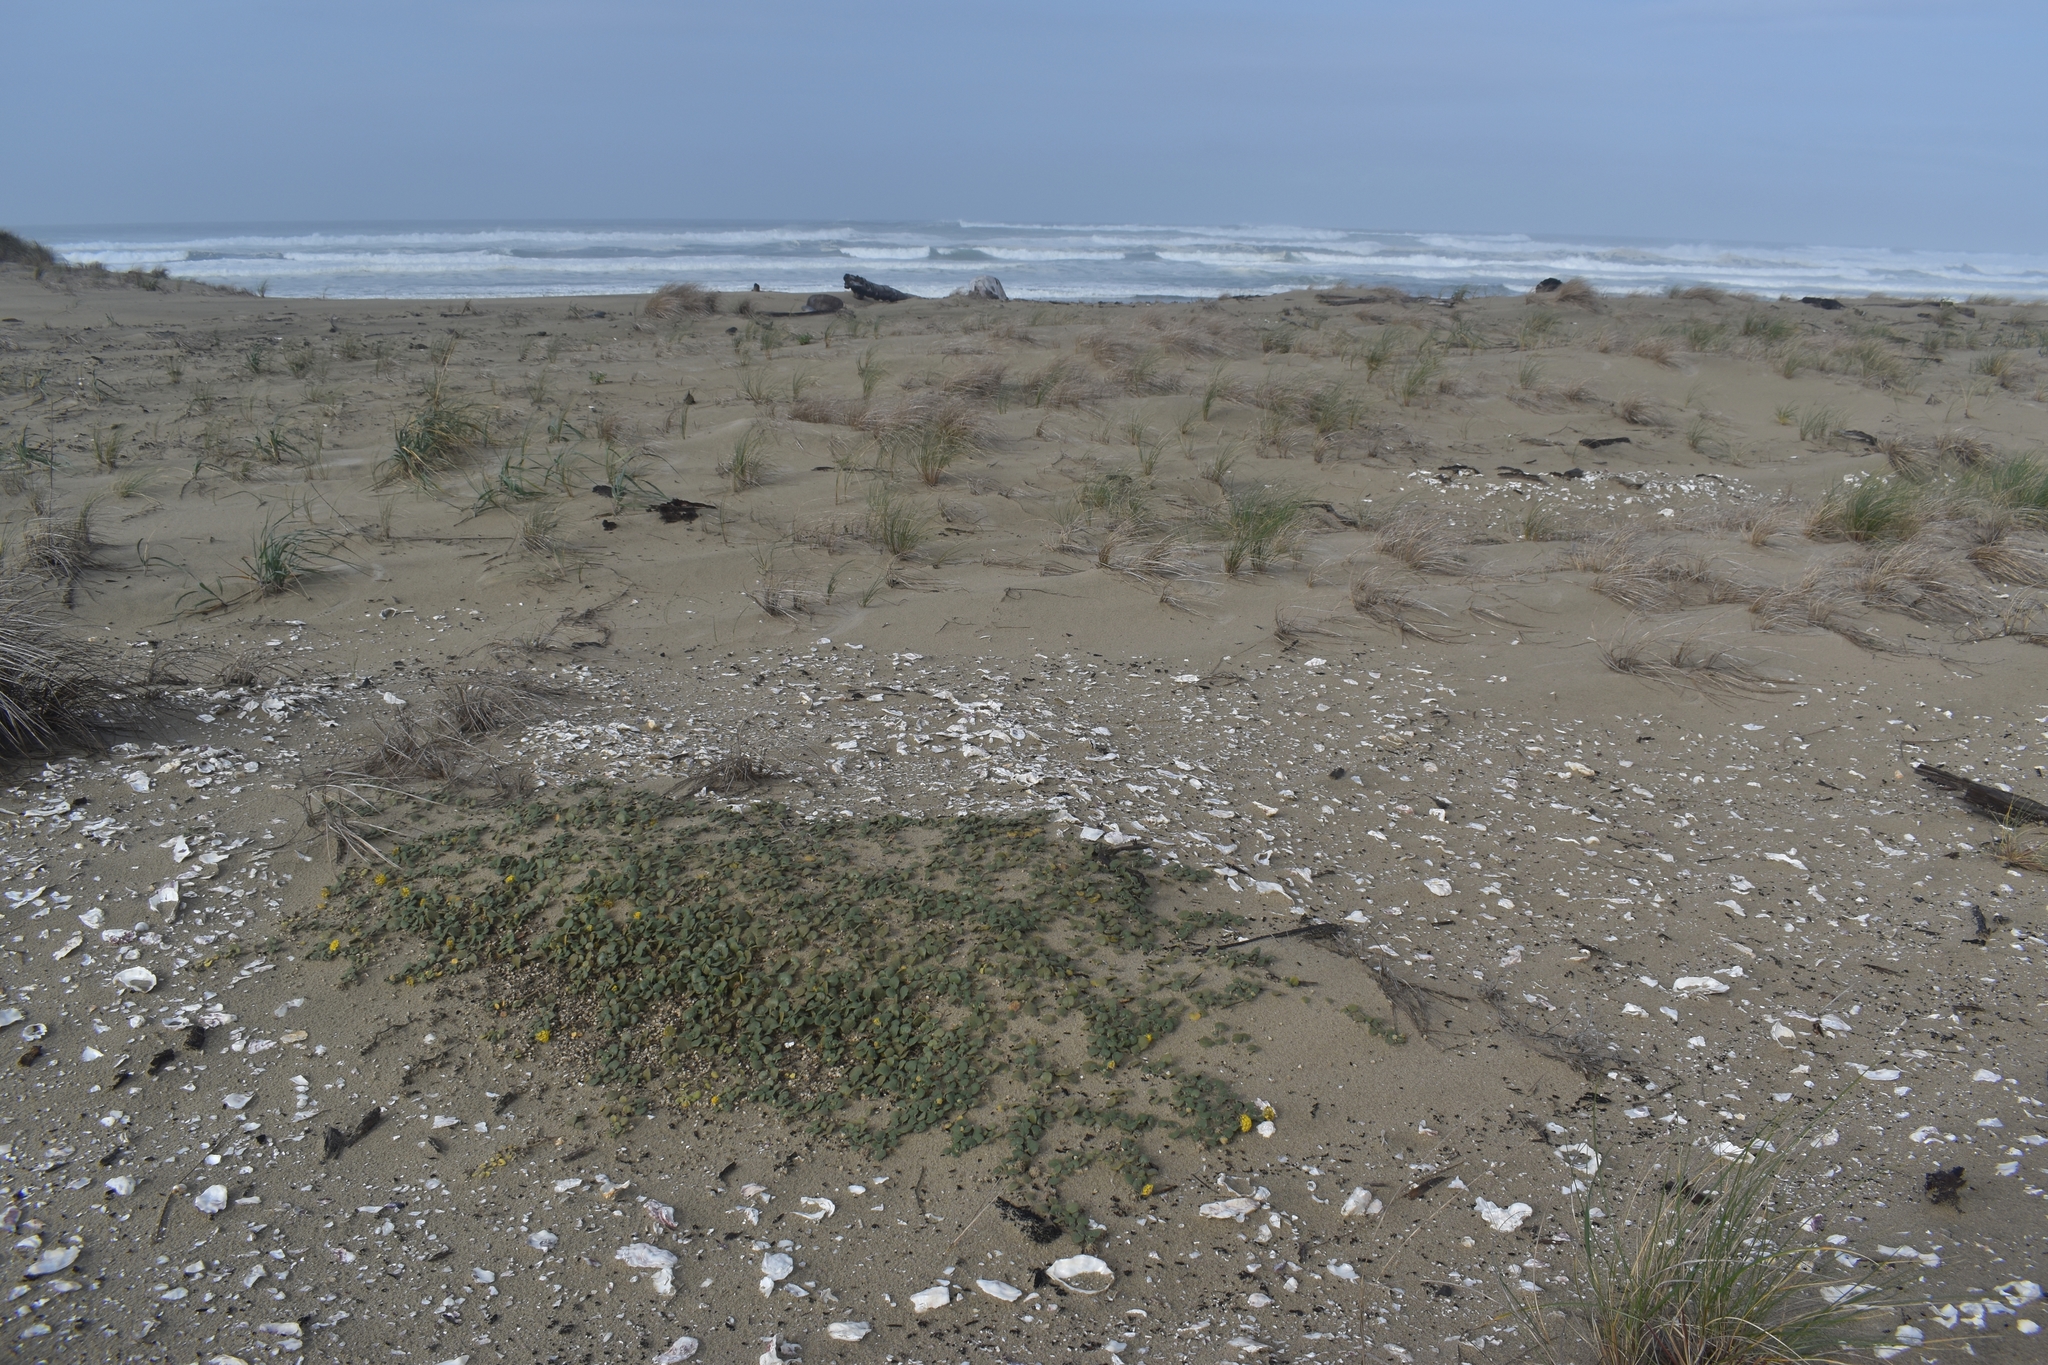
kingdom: Plantae
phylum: Tracheophyta
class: Magnoliopsida
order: Caryophyllales
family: Nyctaginaceae
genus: Abronia
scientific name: Abronia latifolia
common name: Yellow sand-verbena
